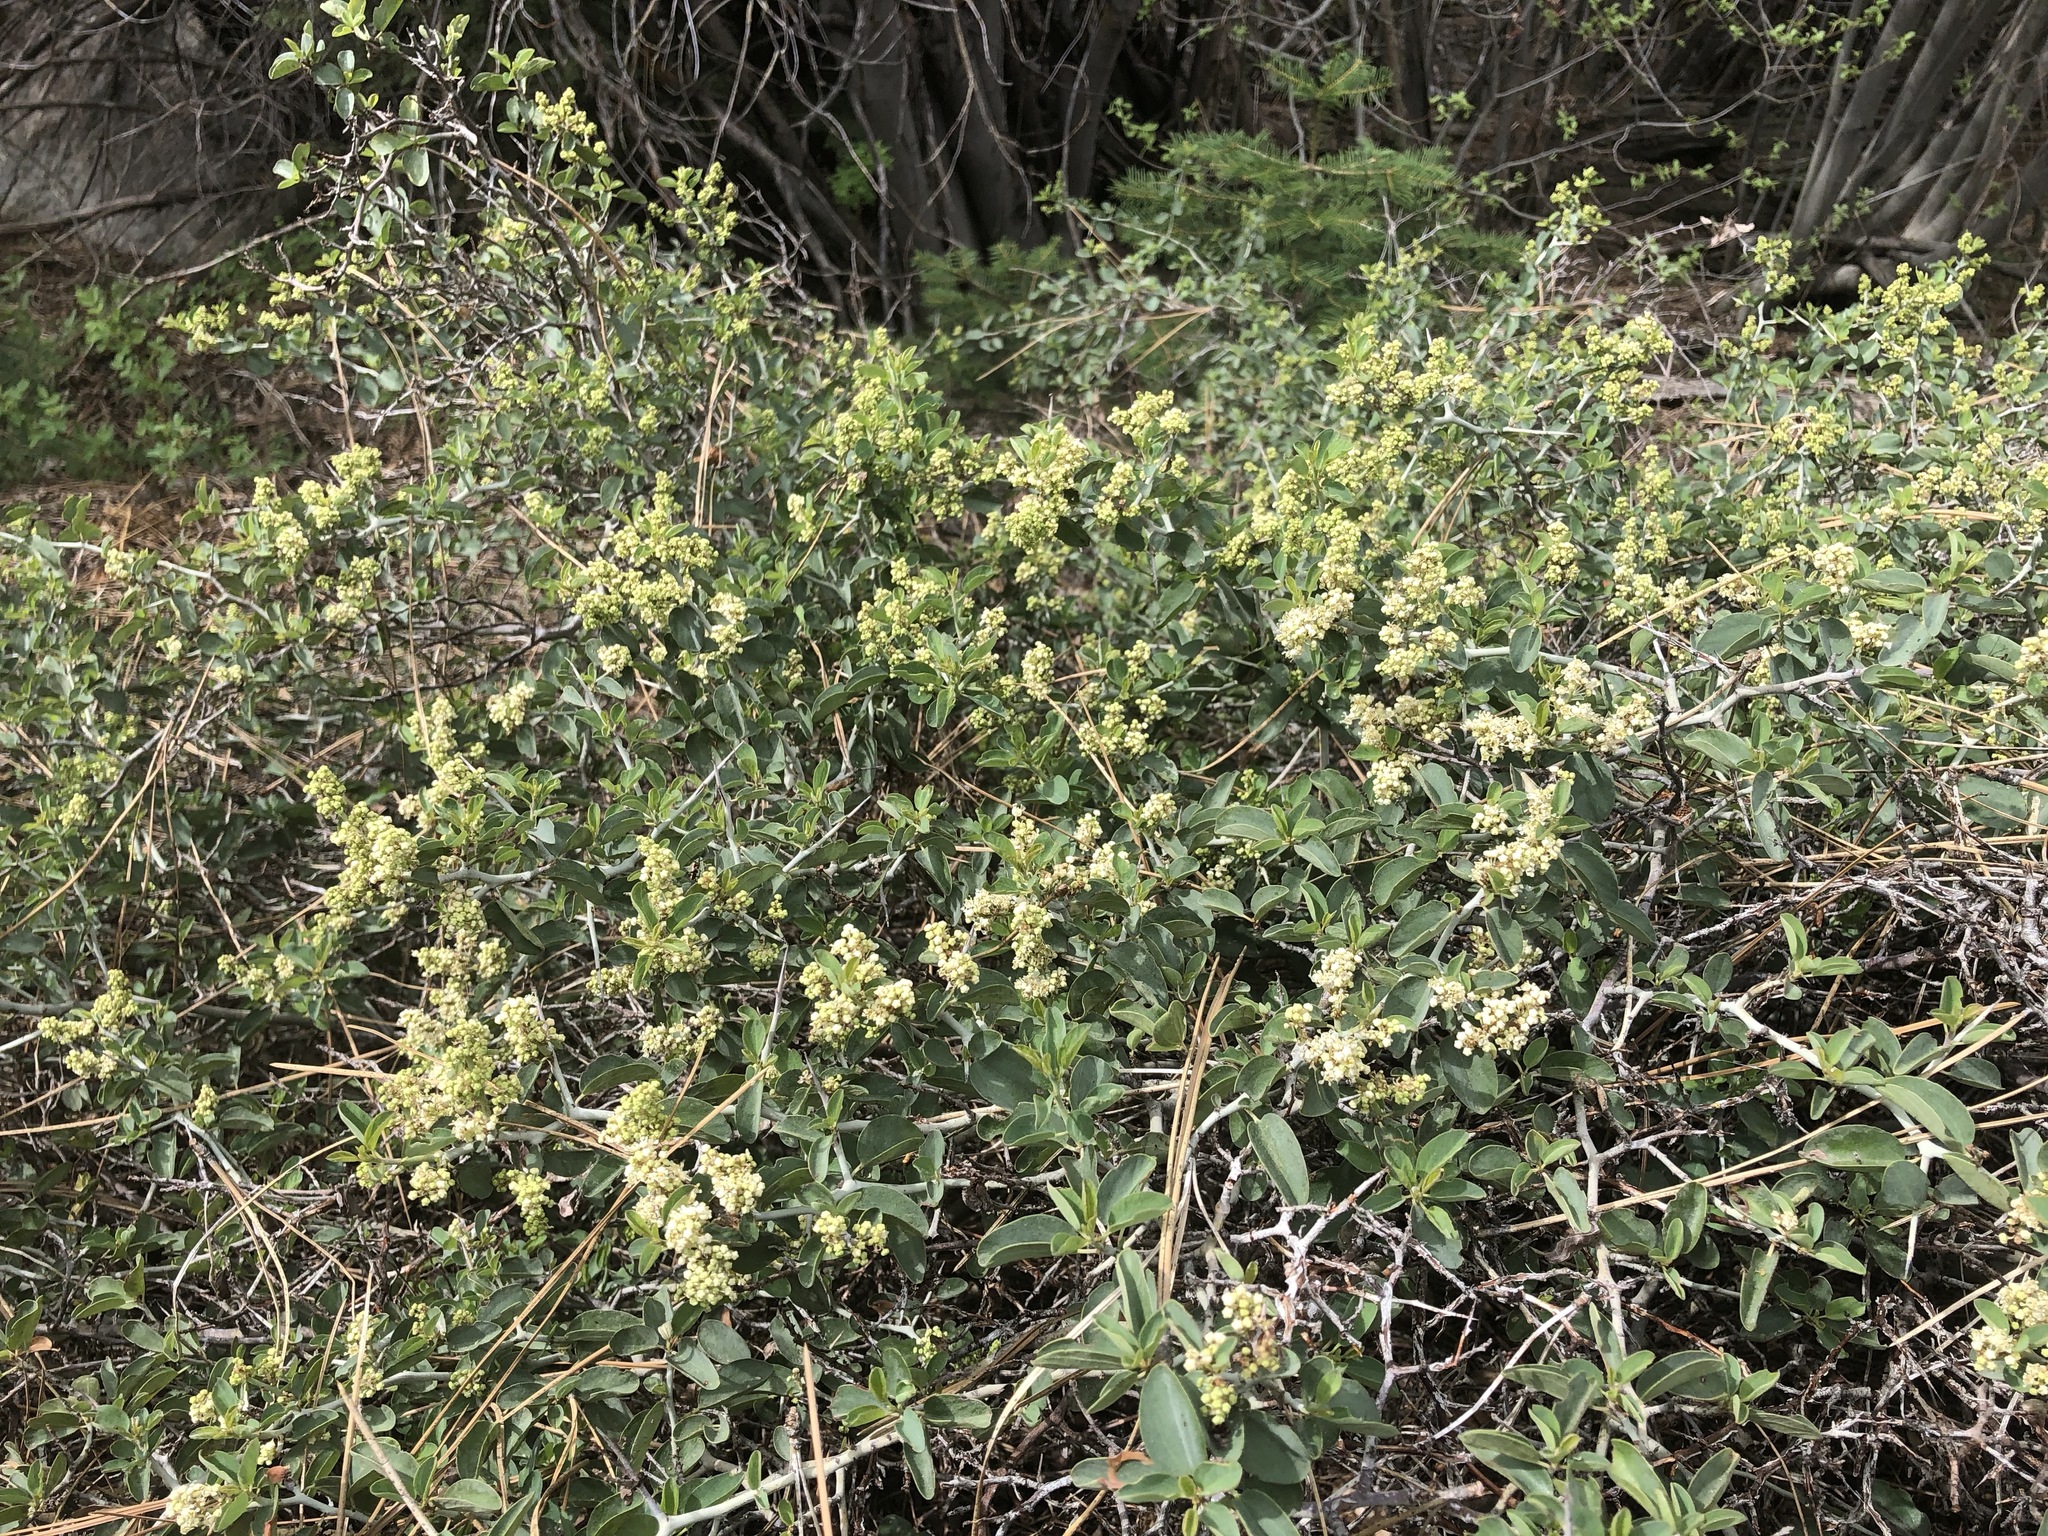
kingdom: Plantae
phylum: Tracheophyta
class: Magnoliopsida
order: Rosales
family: Rhamnaceae
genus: Ceanothus
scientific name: Ceanothus cordulatus
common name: Mountain whitethorn
